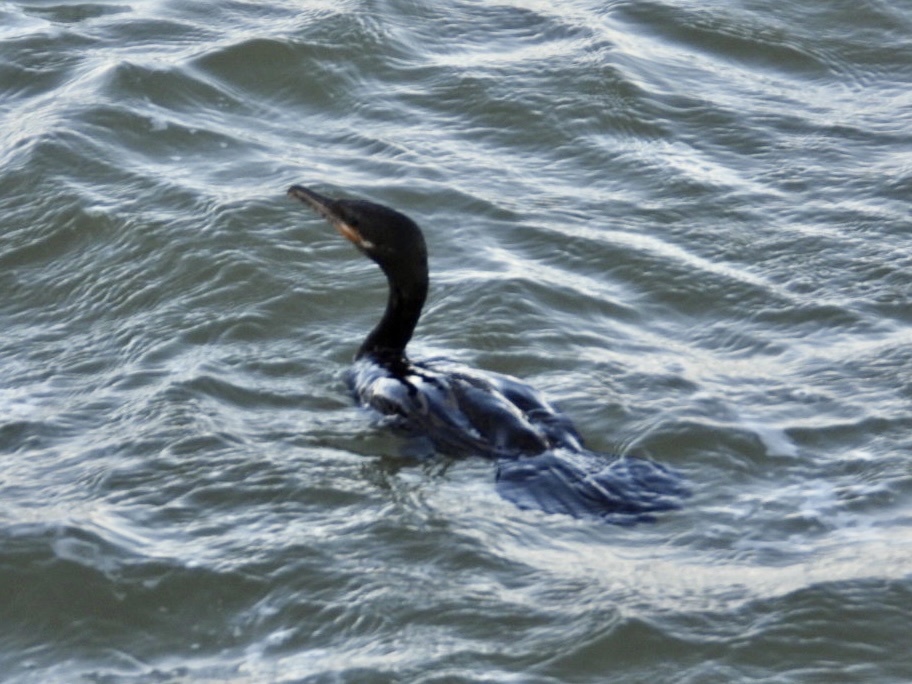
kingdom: Animalia
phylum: Chordata
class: Aves
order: Suliformes
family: Phalacrocoracidae
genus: Phalacrocorax
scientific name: Phalacrocorax brasilianus
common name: Neotropic cormorant
